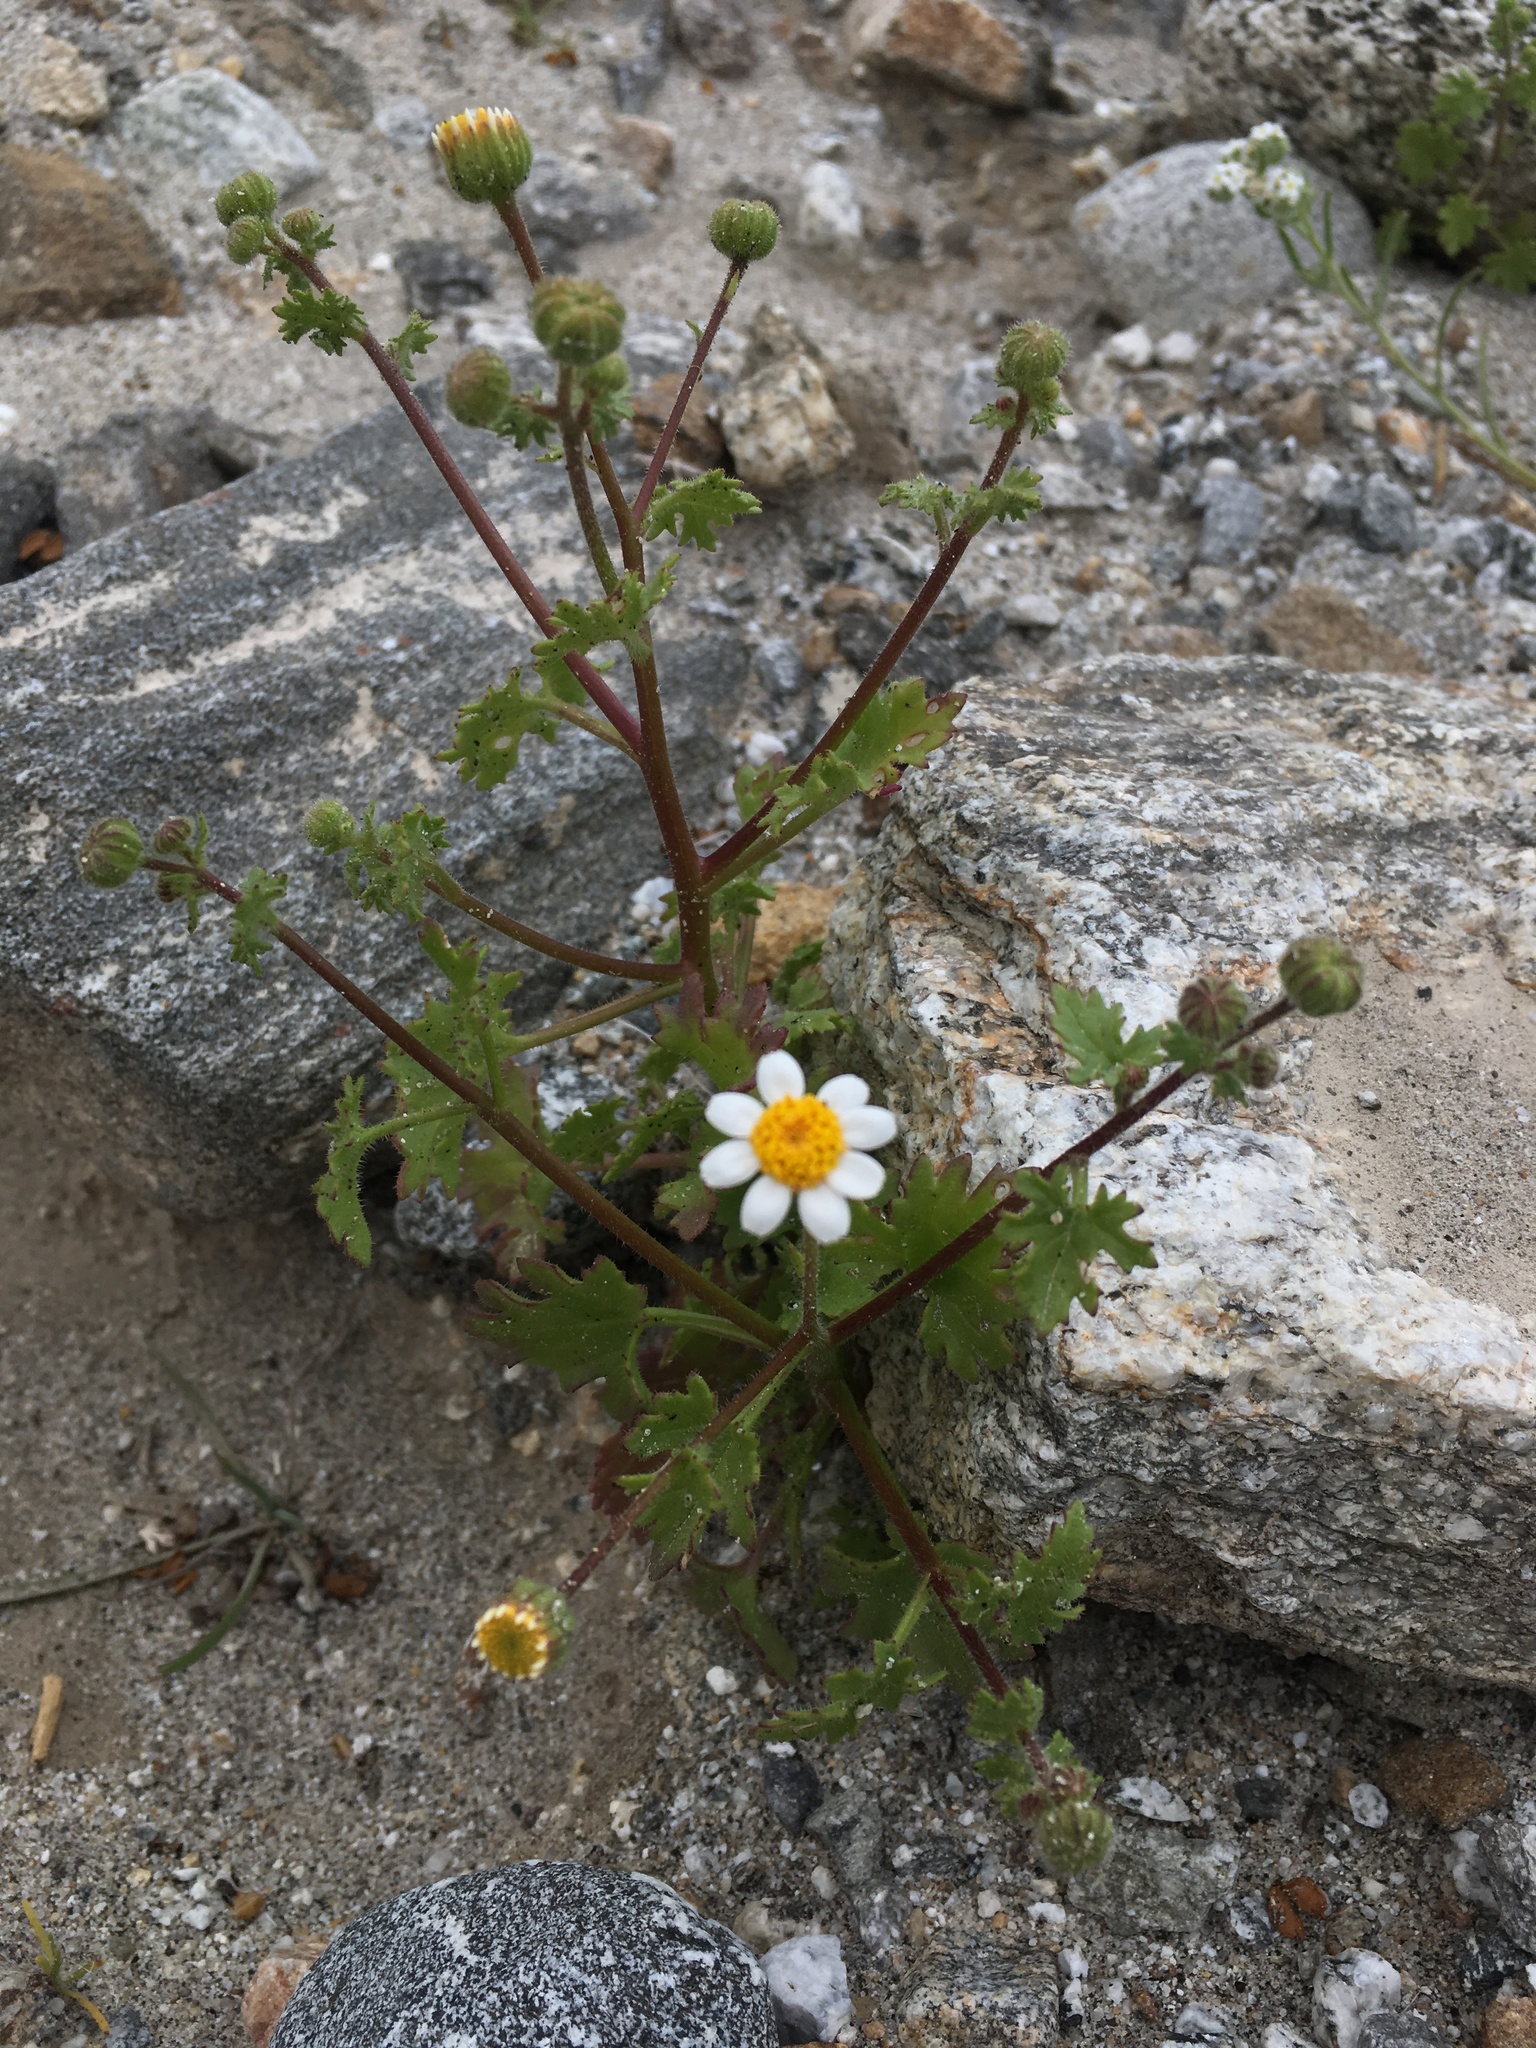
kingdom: Plantae
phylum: Tracheophyta
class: Magnoliopsida
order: Asterales
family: Asteraceae
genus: Laphamia
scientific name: Laphamia emoryi
